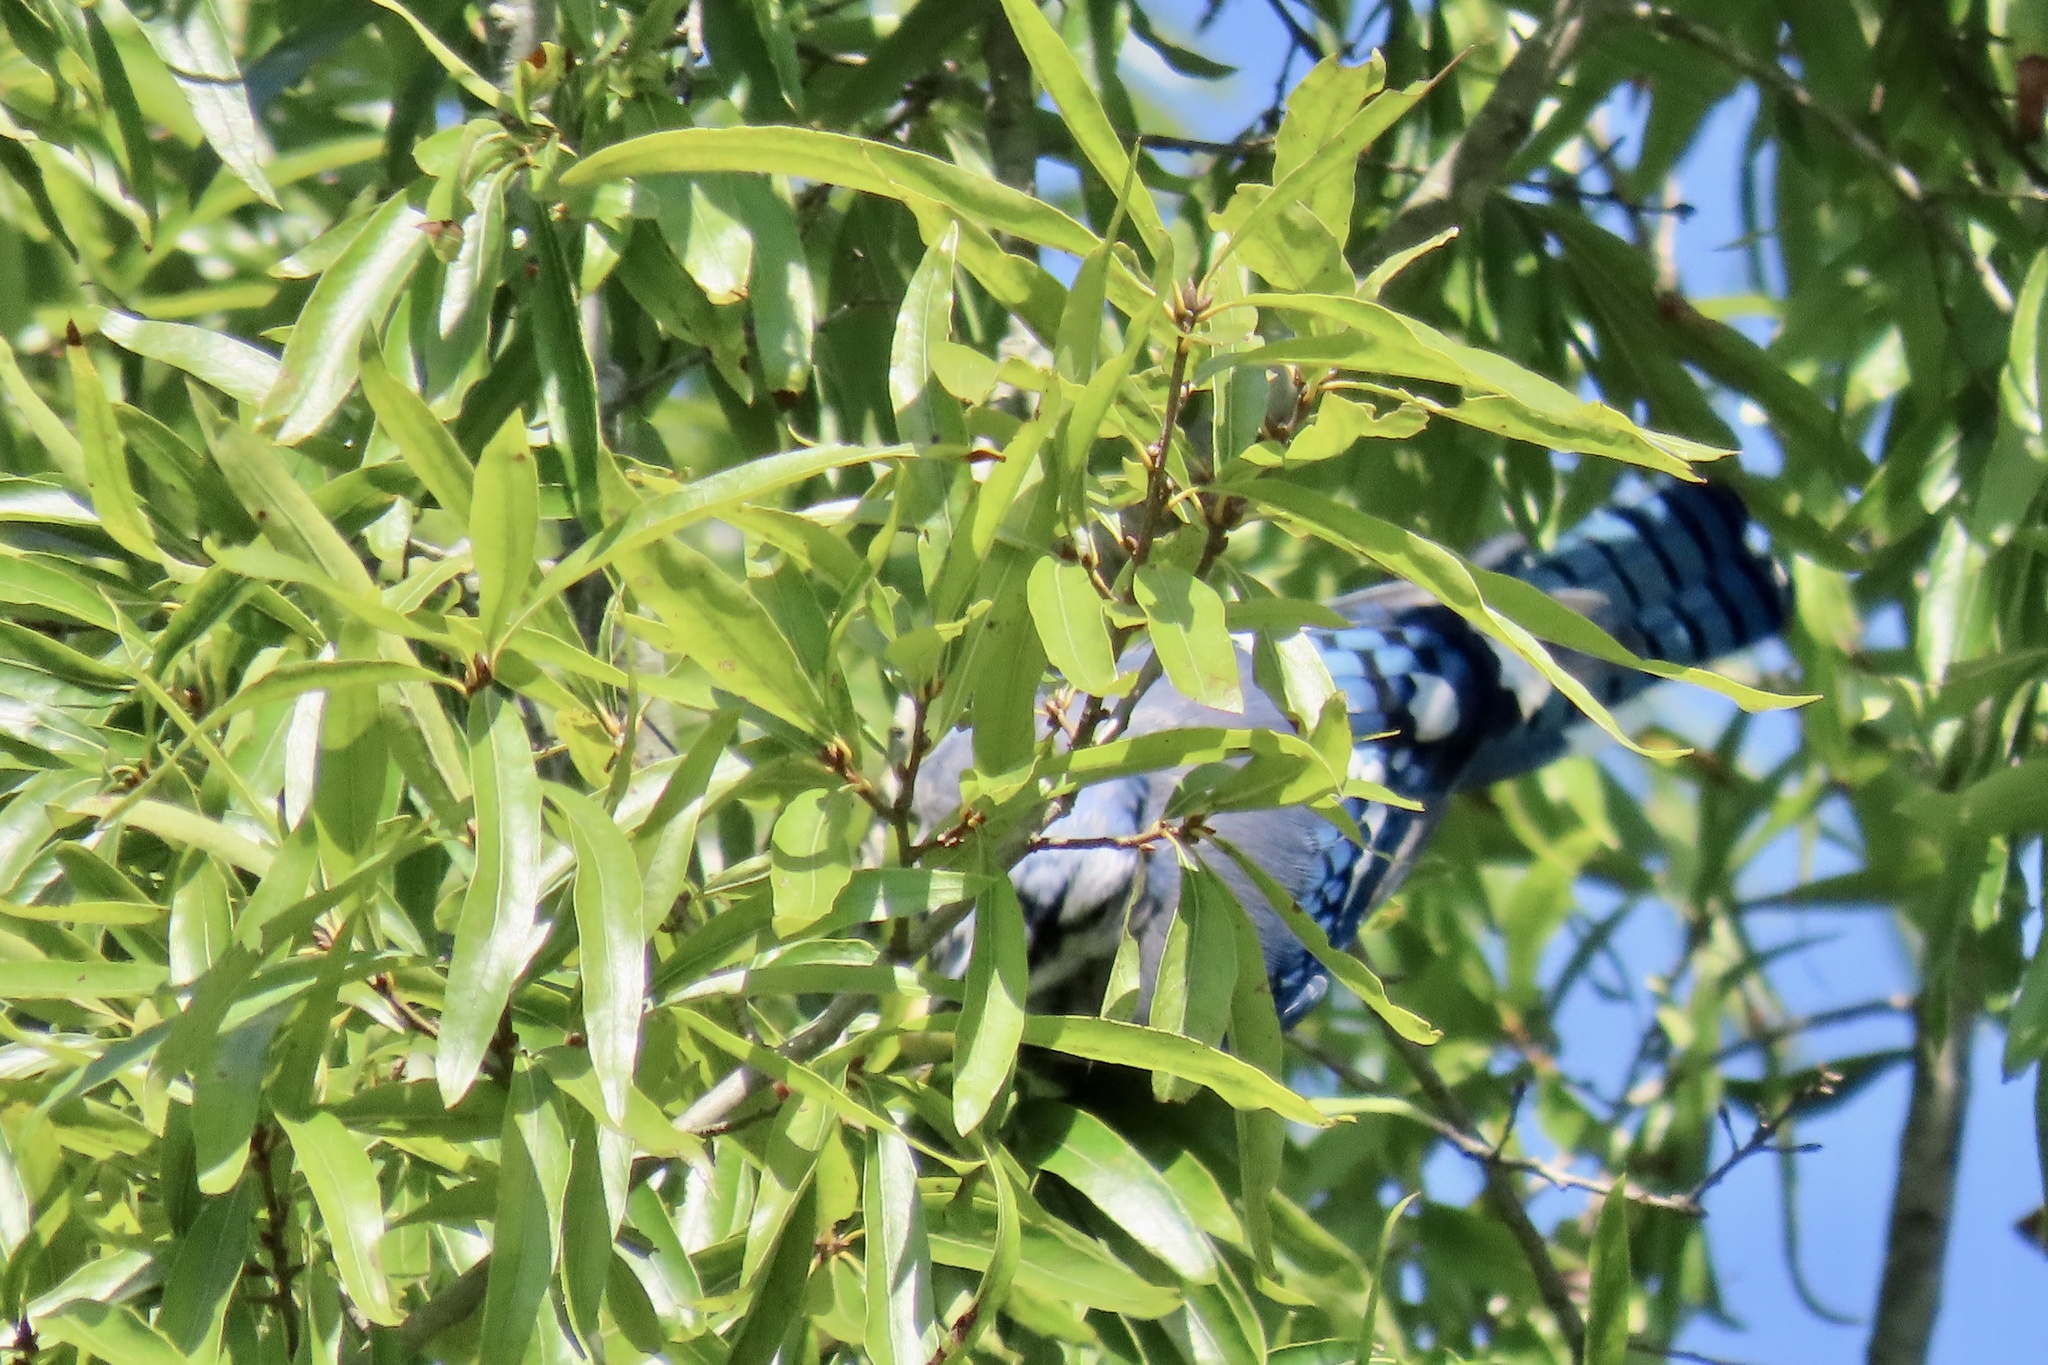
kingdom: Animalia
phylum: Chordata
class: Aves
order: Passeriformes
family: Corvidae
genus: Cyanocitta
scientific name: Cyanocitta cristata
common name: Blue jay
